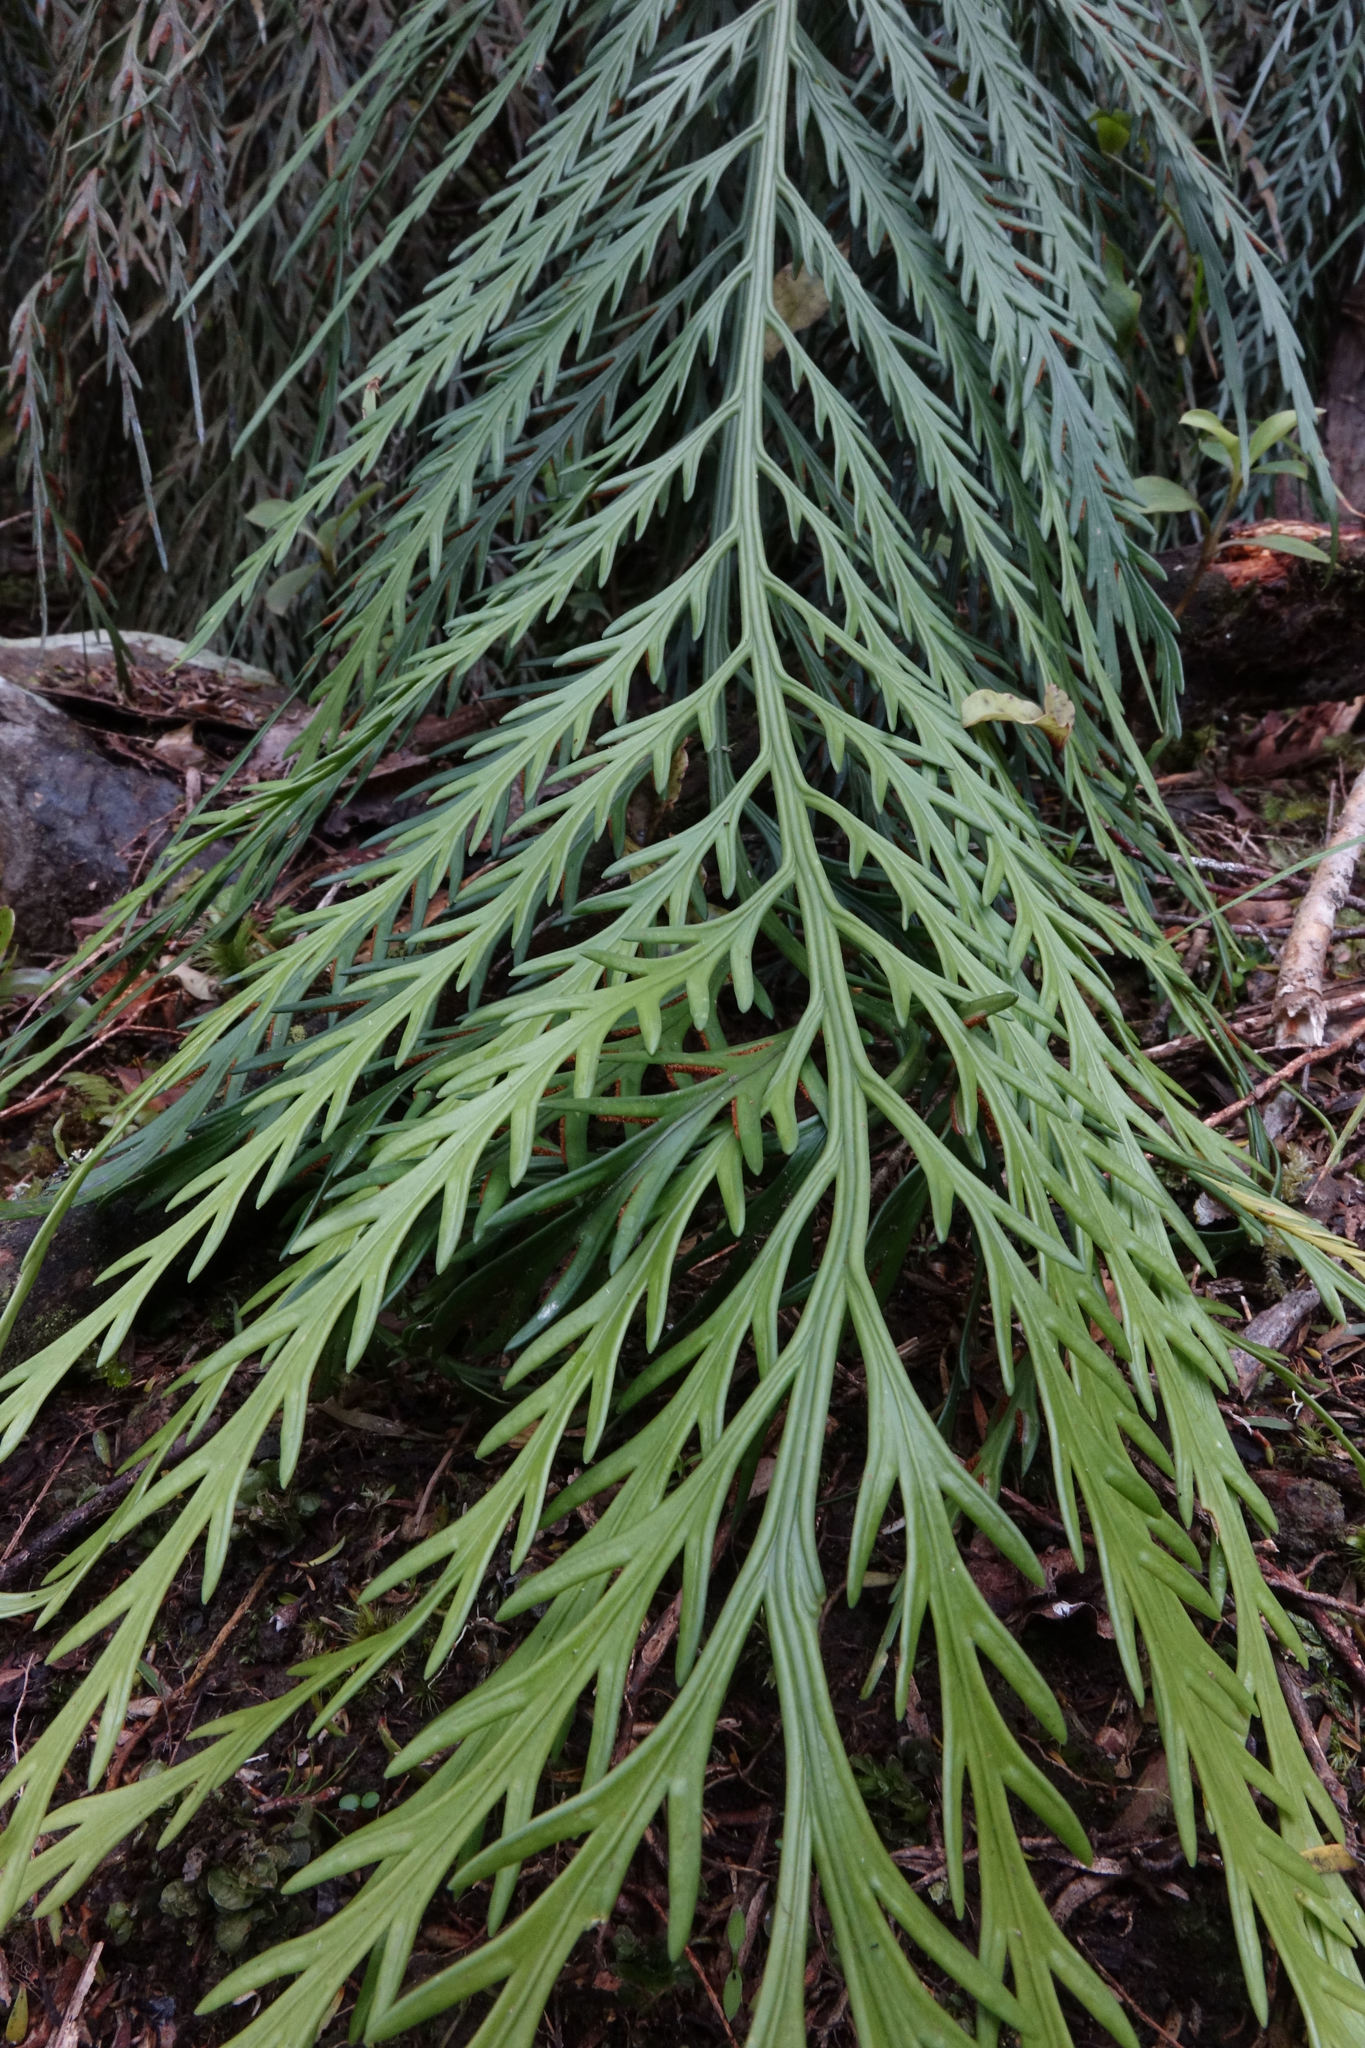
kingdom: Plantae
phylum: Tracheophyta
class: Polypodiopsida
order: Polypodiales
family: Aspleniaceae
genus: Asplenium
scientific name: Asplenium flaccidum
